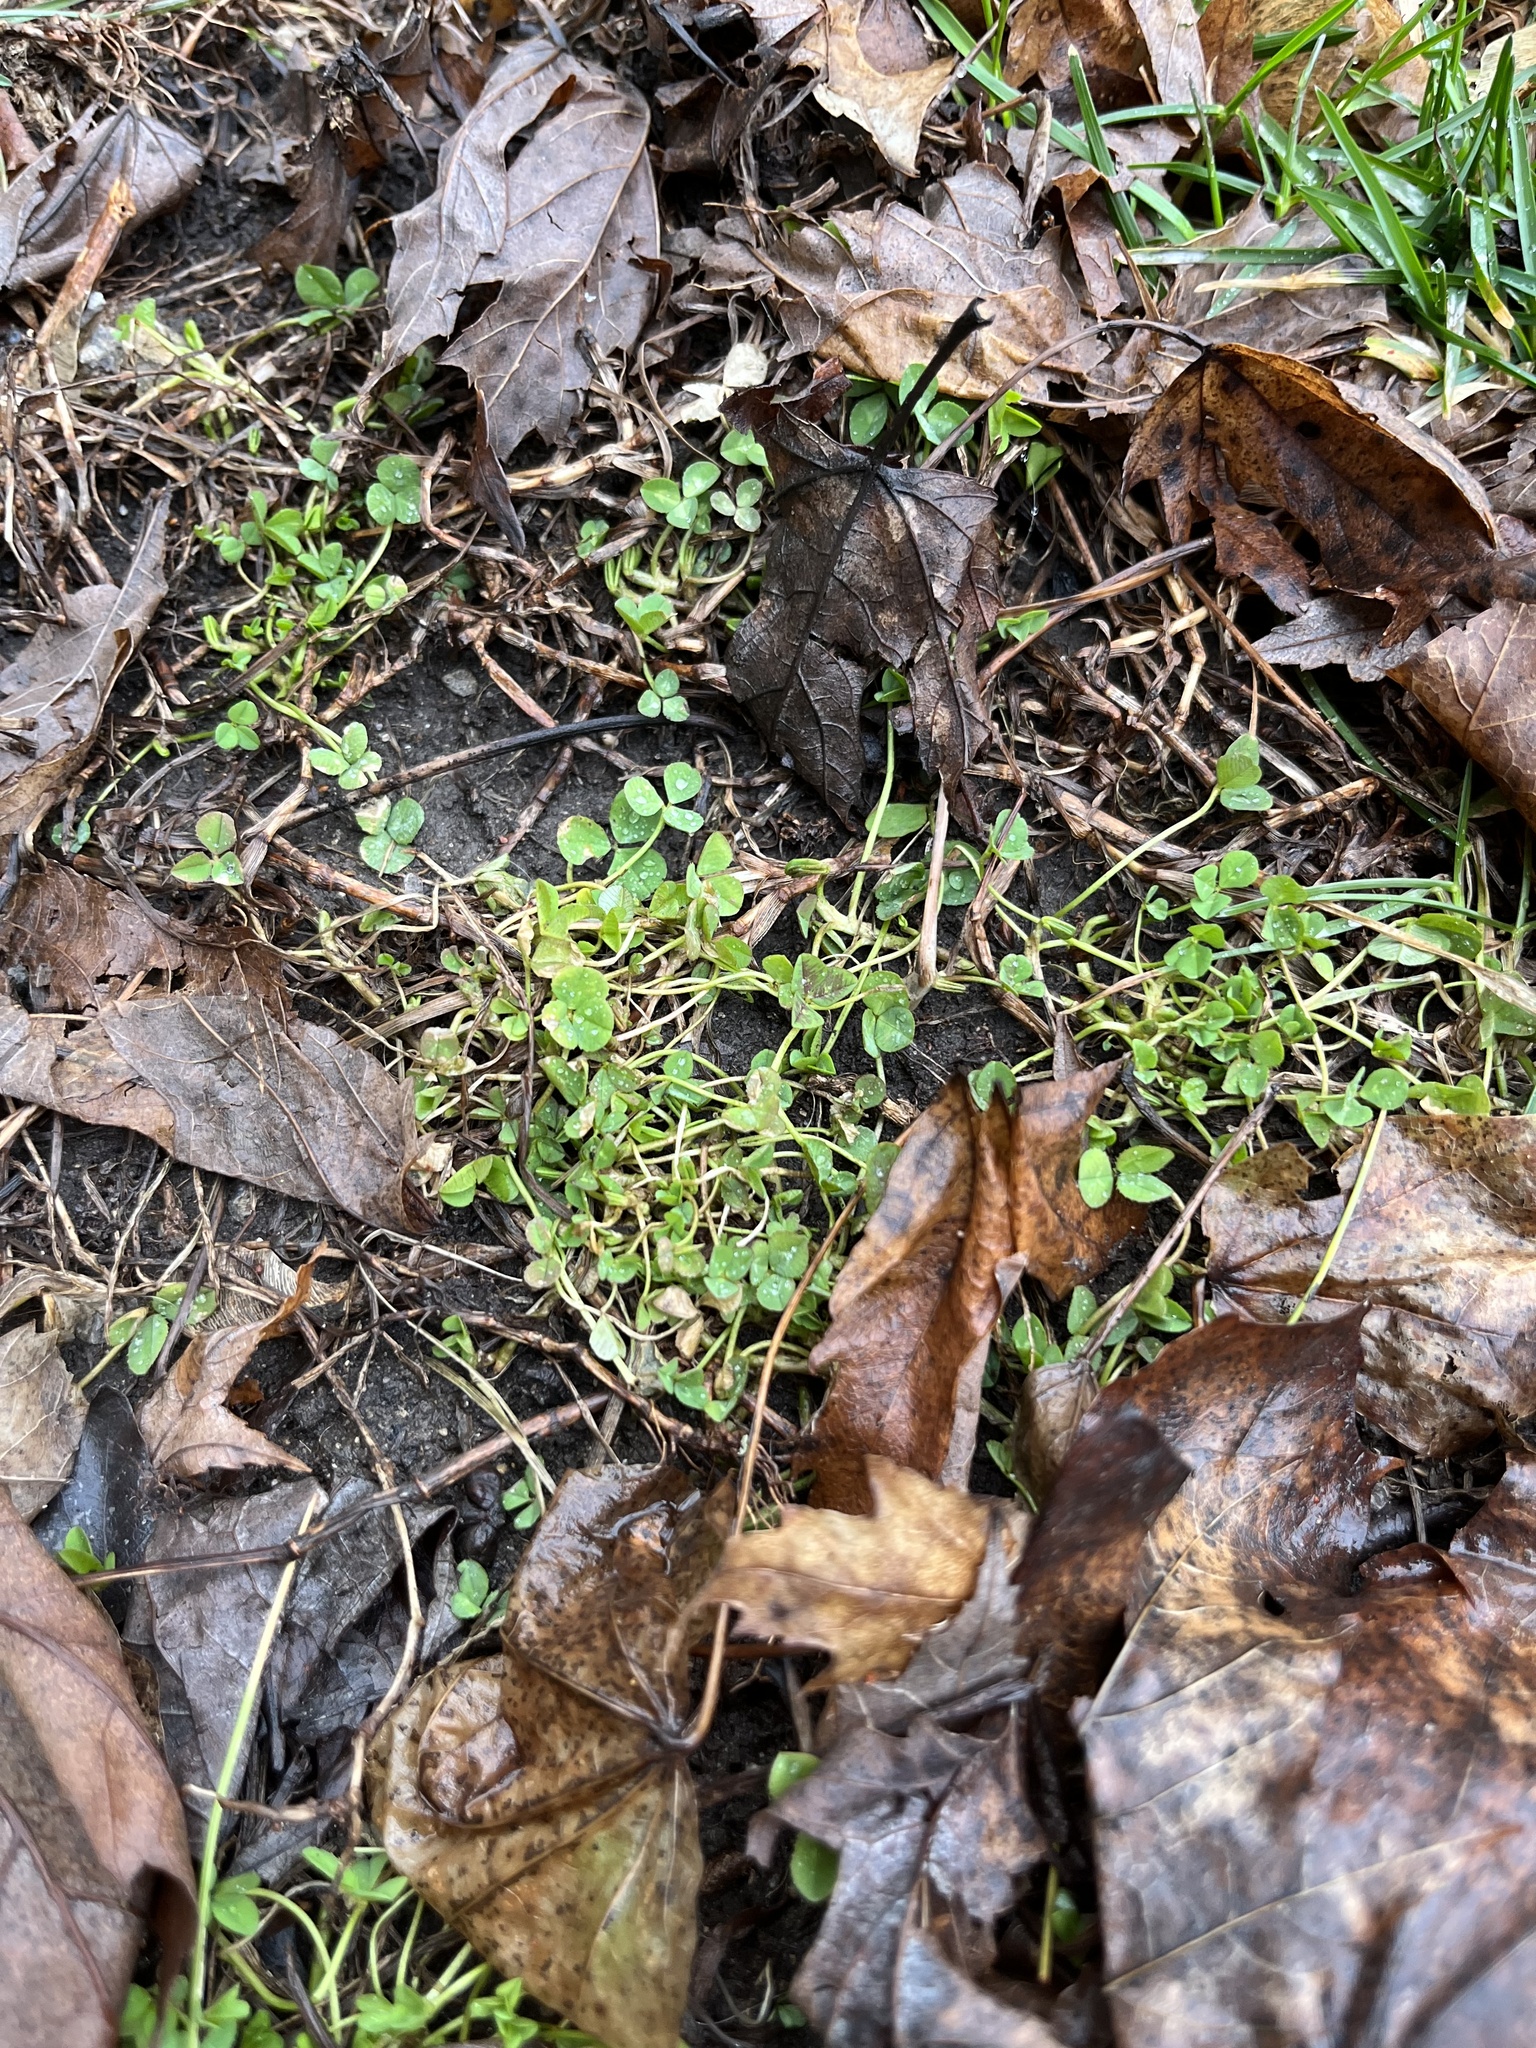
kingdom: Plantae
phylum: Tracheophyta
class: Magnoliopsida
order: Fabales
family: Fabaceae
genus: Trifolium
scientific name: Trifolium repens
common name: White clover
